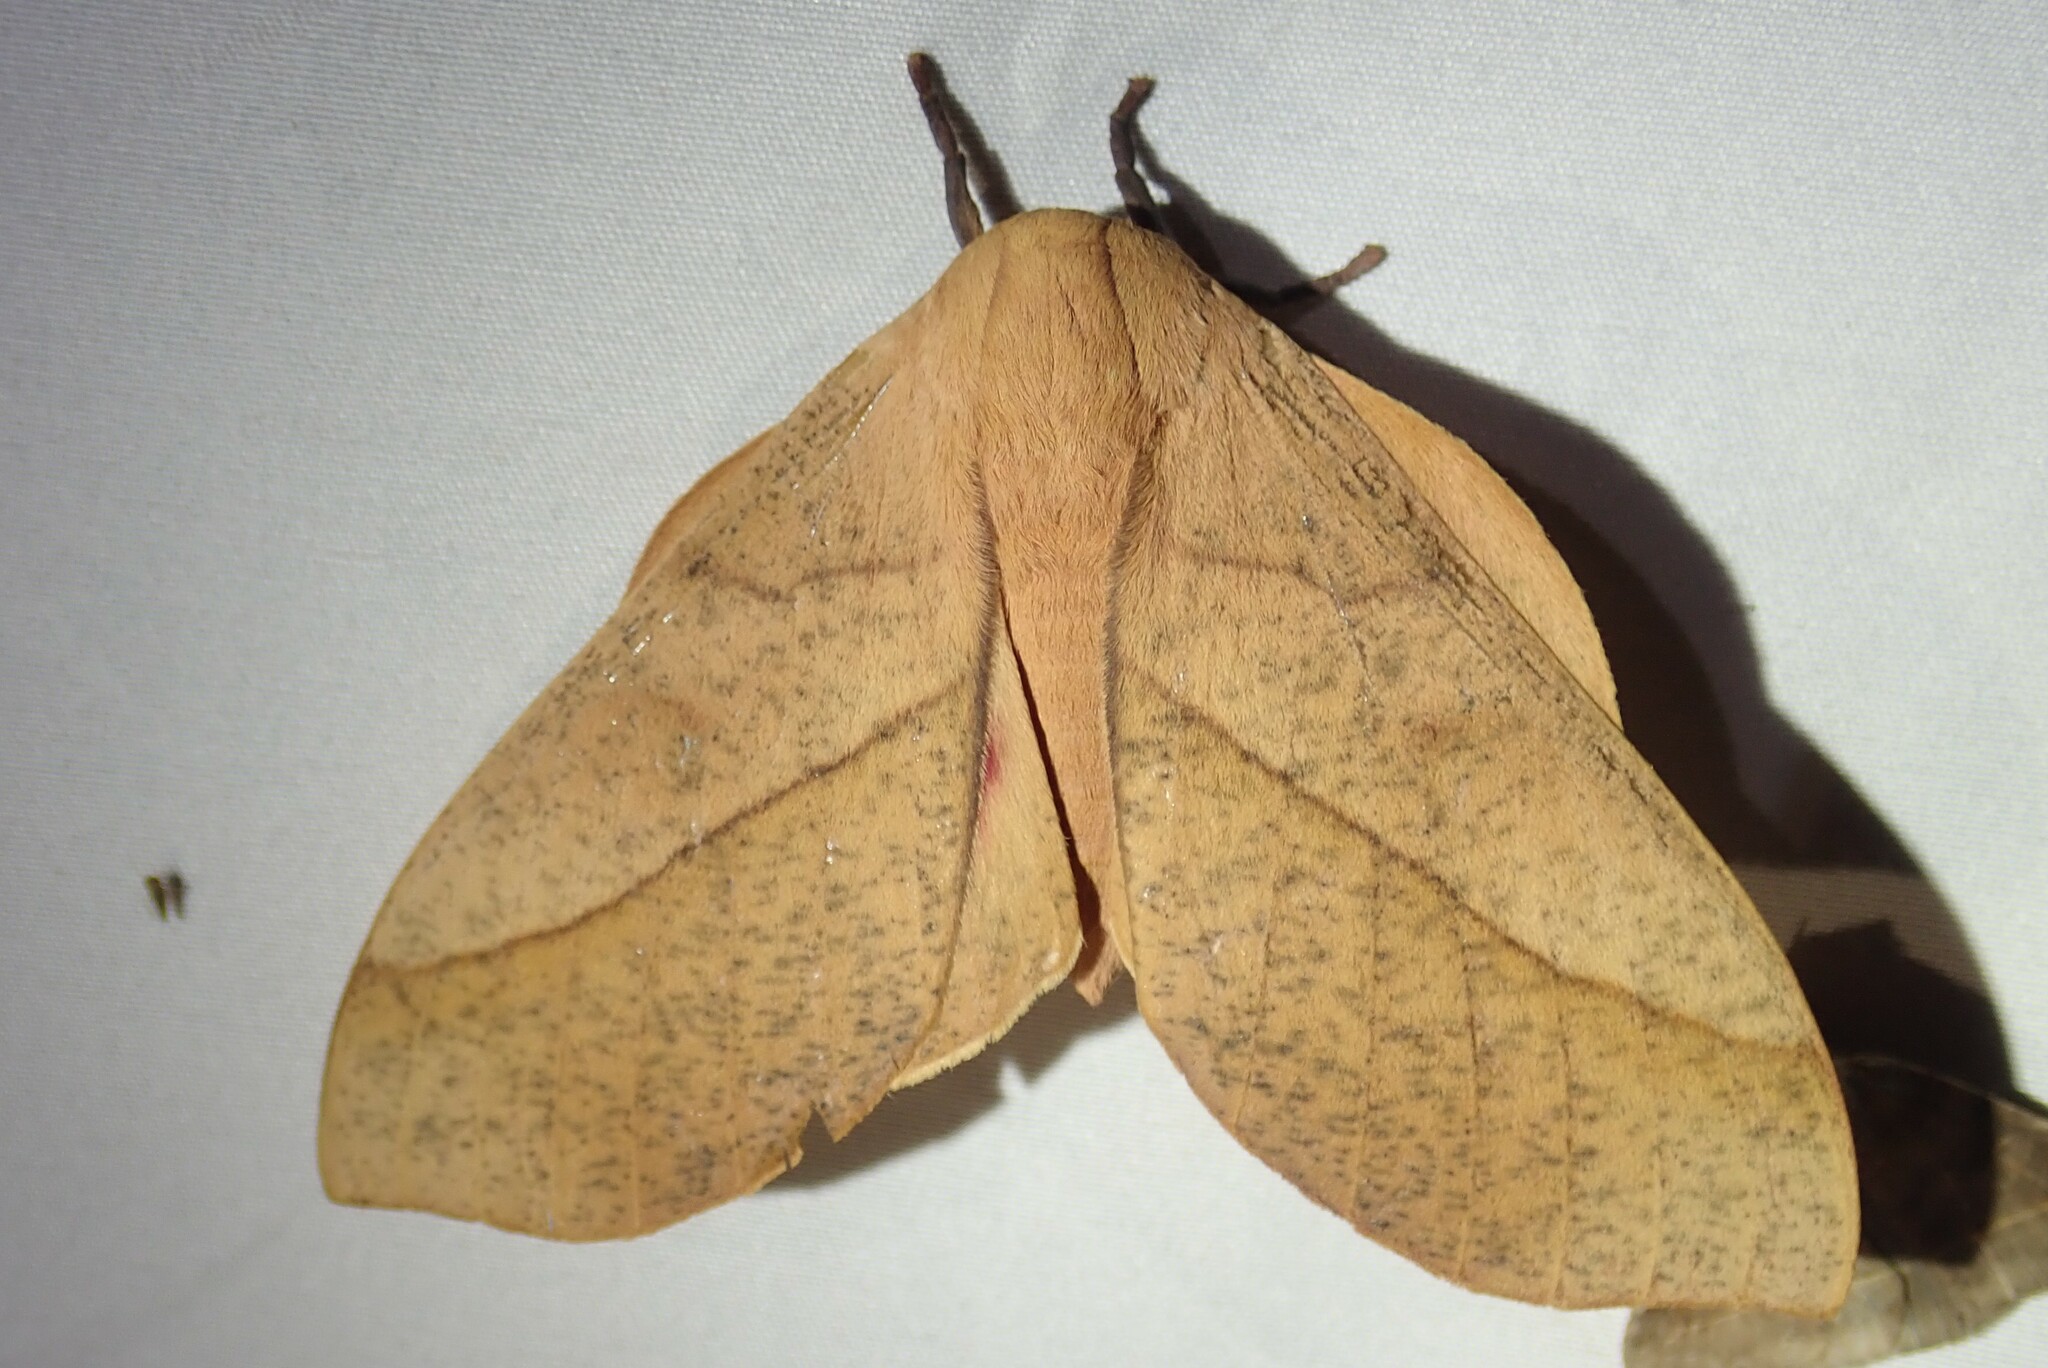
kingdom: Animalia
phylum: Arthropoda
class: Insecta
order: Lepidoptera
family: Saturniidae
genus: Syssphinx
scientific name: Syssphinx molina
